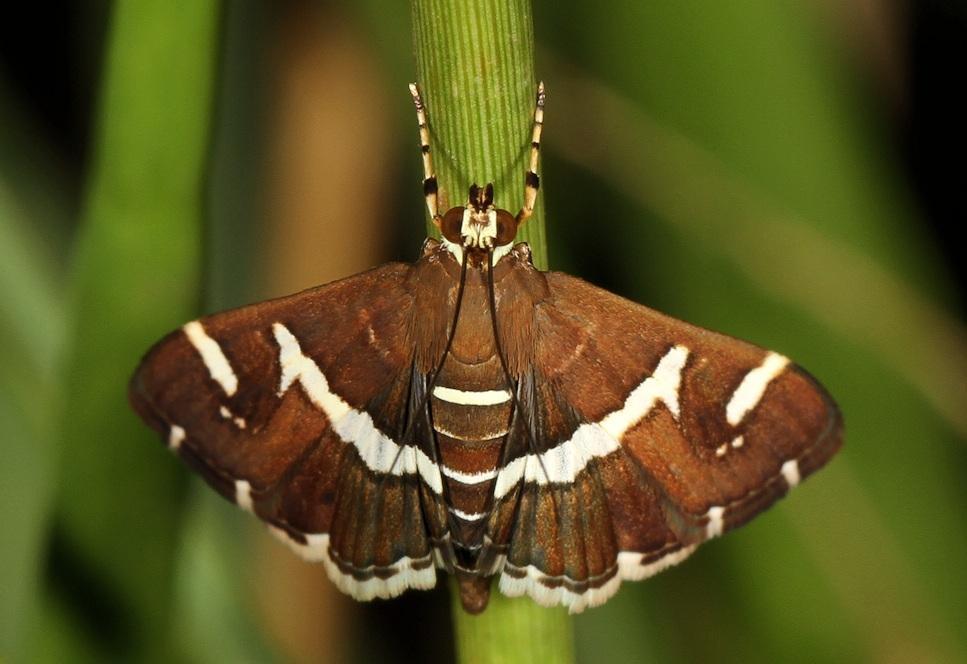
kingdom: Animalia
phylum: Arthropoda
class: Insecta
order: Lepidoptera
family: Crambidae
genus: Spoladea
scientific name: Spoladea recurvalis
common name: Beet webworm moth
